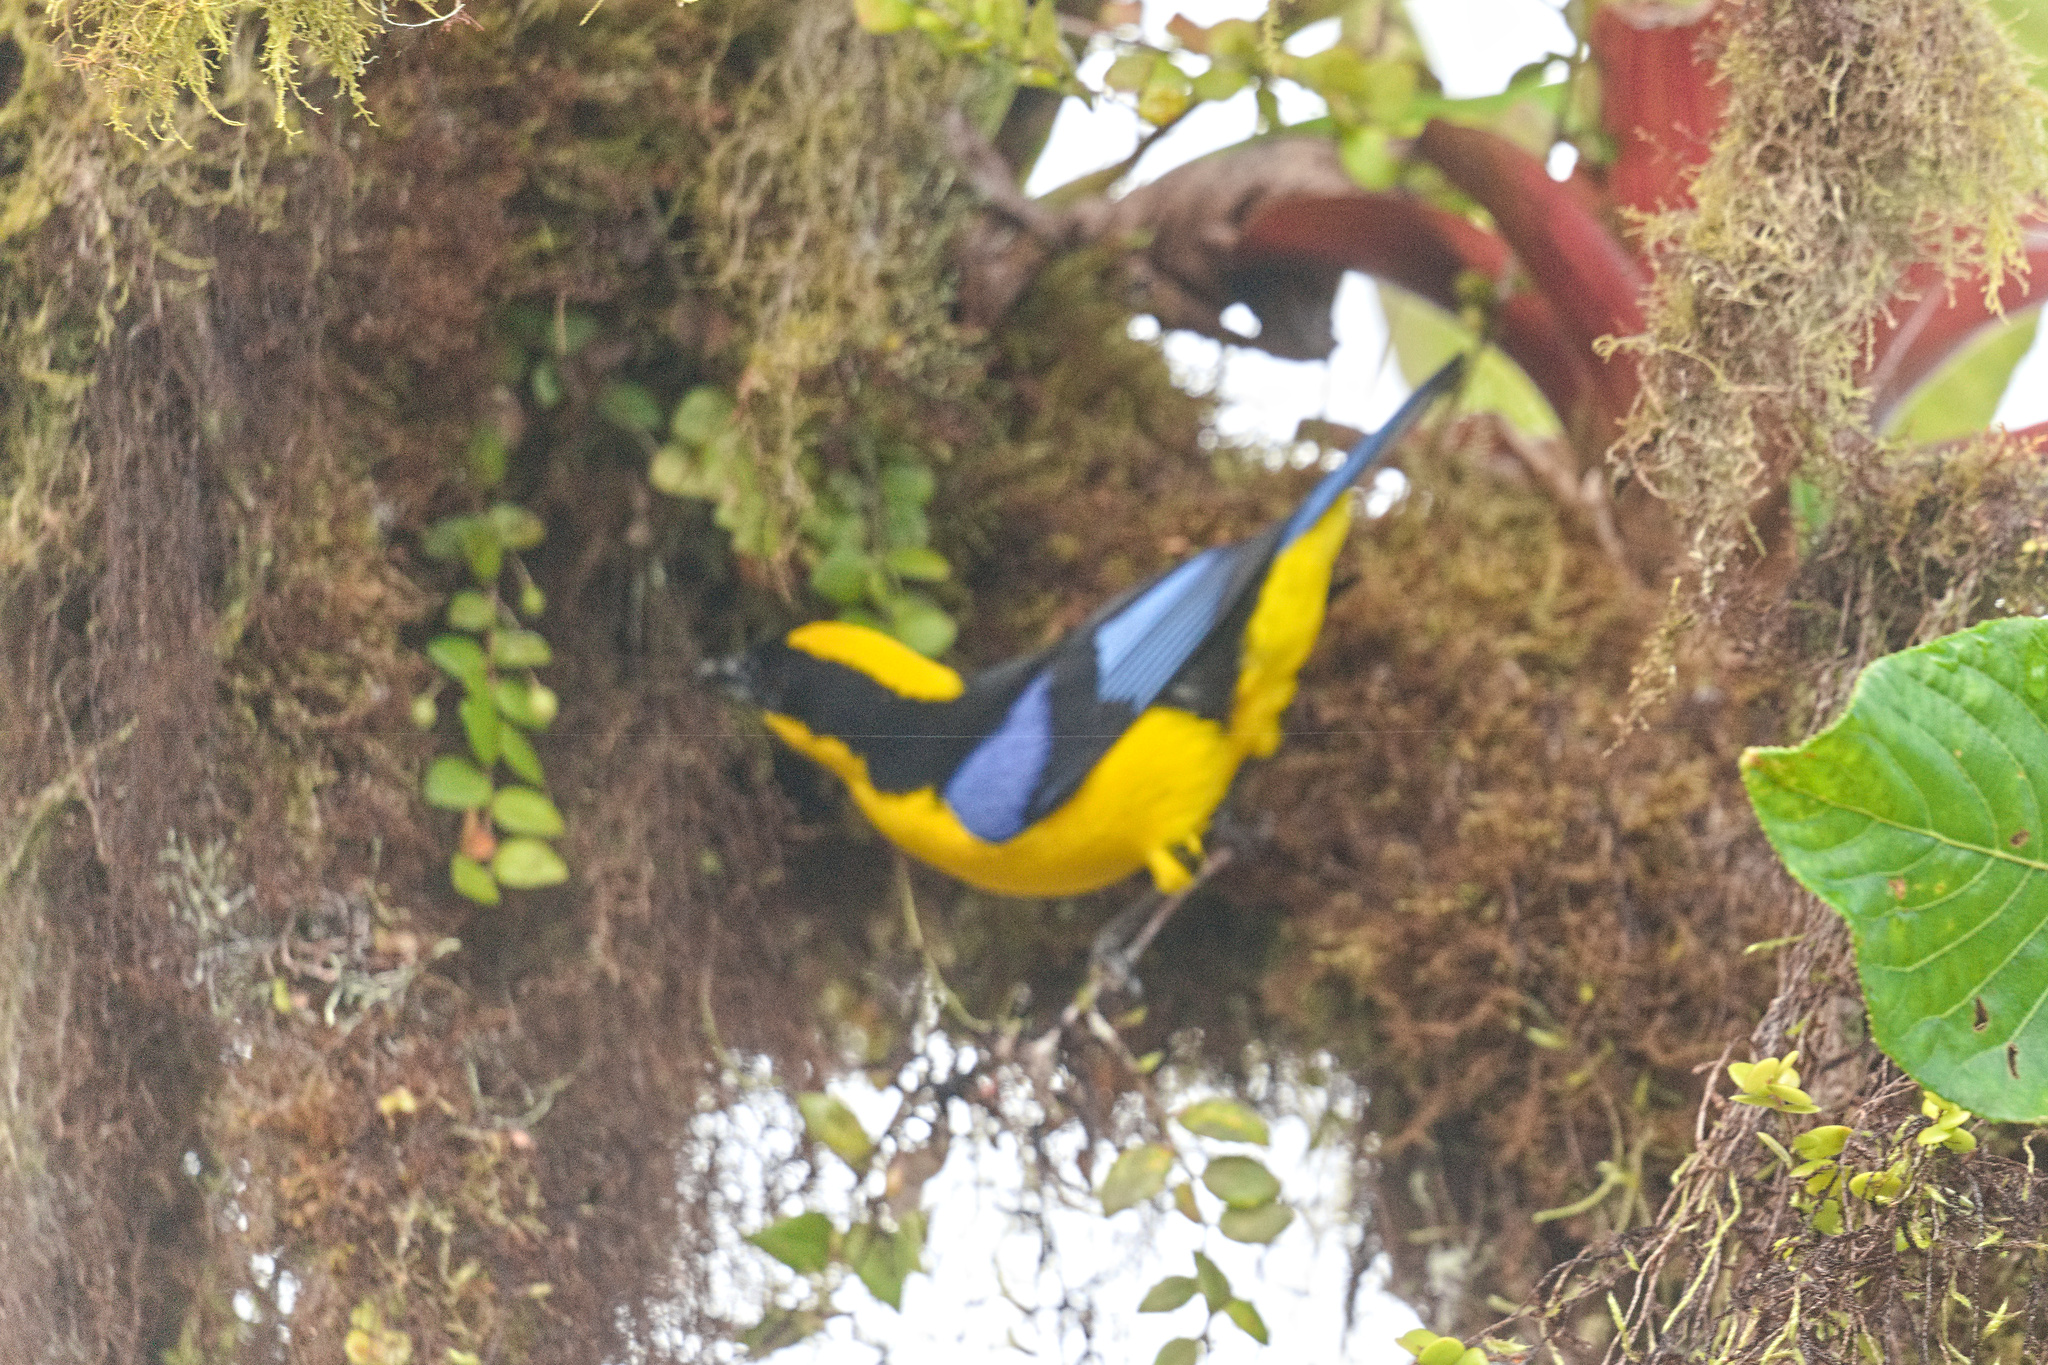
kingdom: Animalia
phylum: Chordata
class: Aves
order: Passeriformes
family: Thraupidae
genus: Anisognathus
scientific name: Anisognathus somptuosus
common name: Blue-winged mountain-tanager
